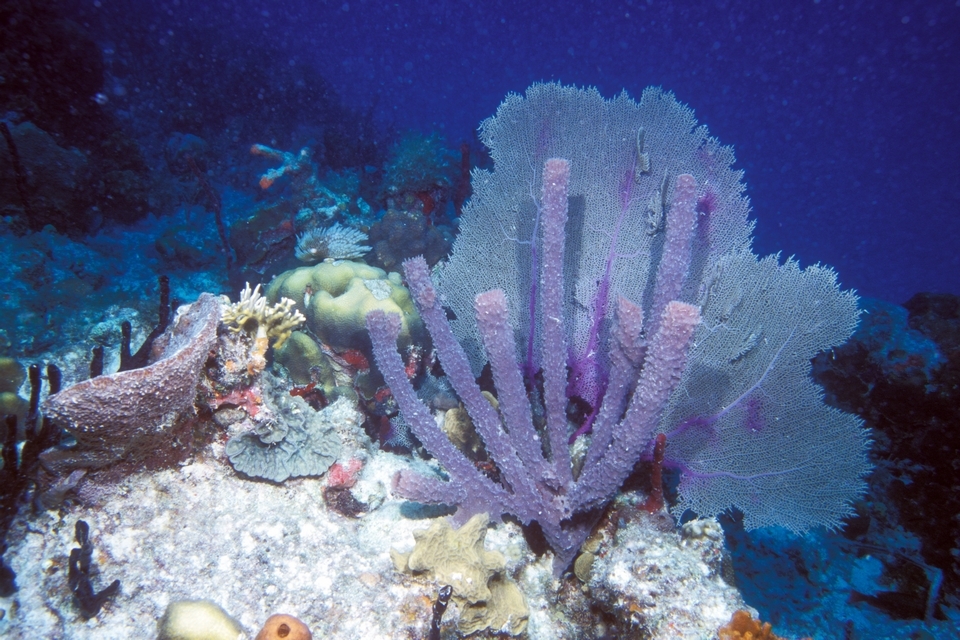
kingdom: Animalia
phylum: Porifera
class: Demospongiae
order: Haplosclerida
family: Callyspongiidae
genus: Callyspongia
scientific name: Callyspongia aculeata
